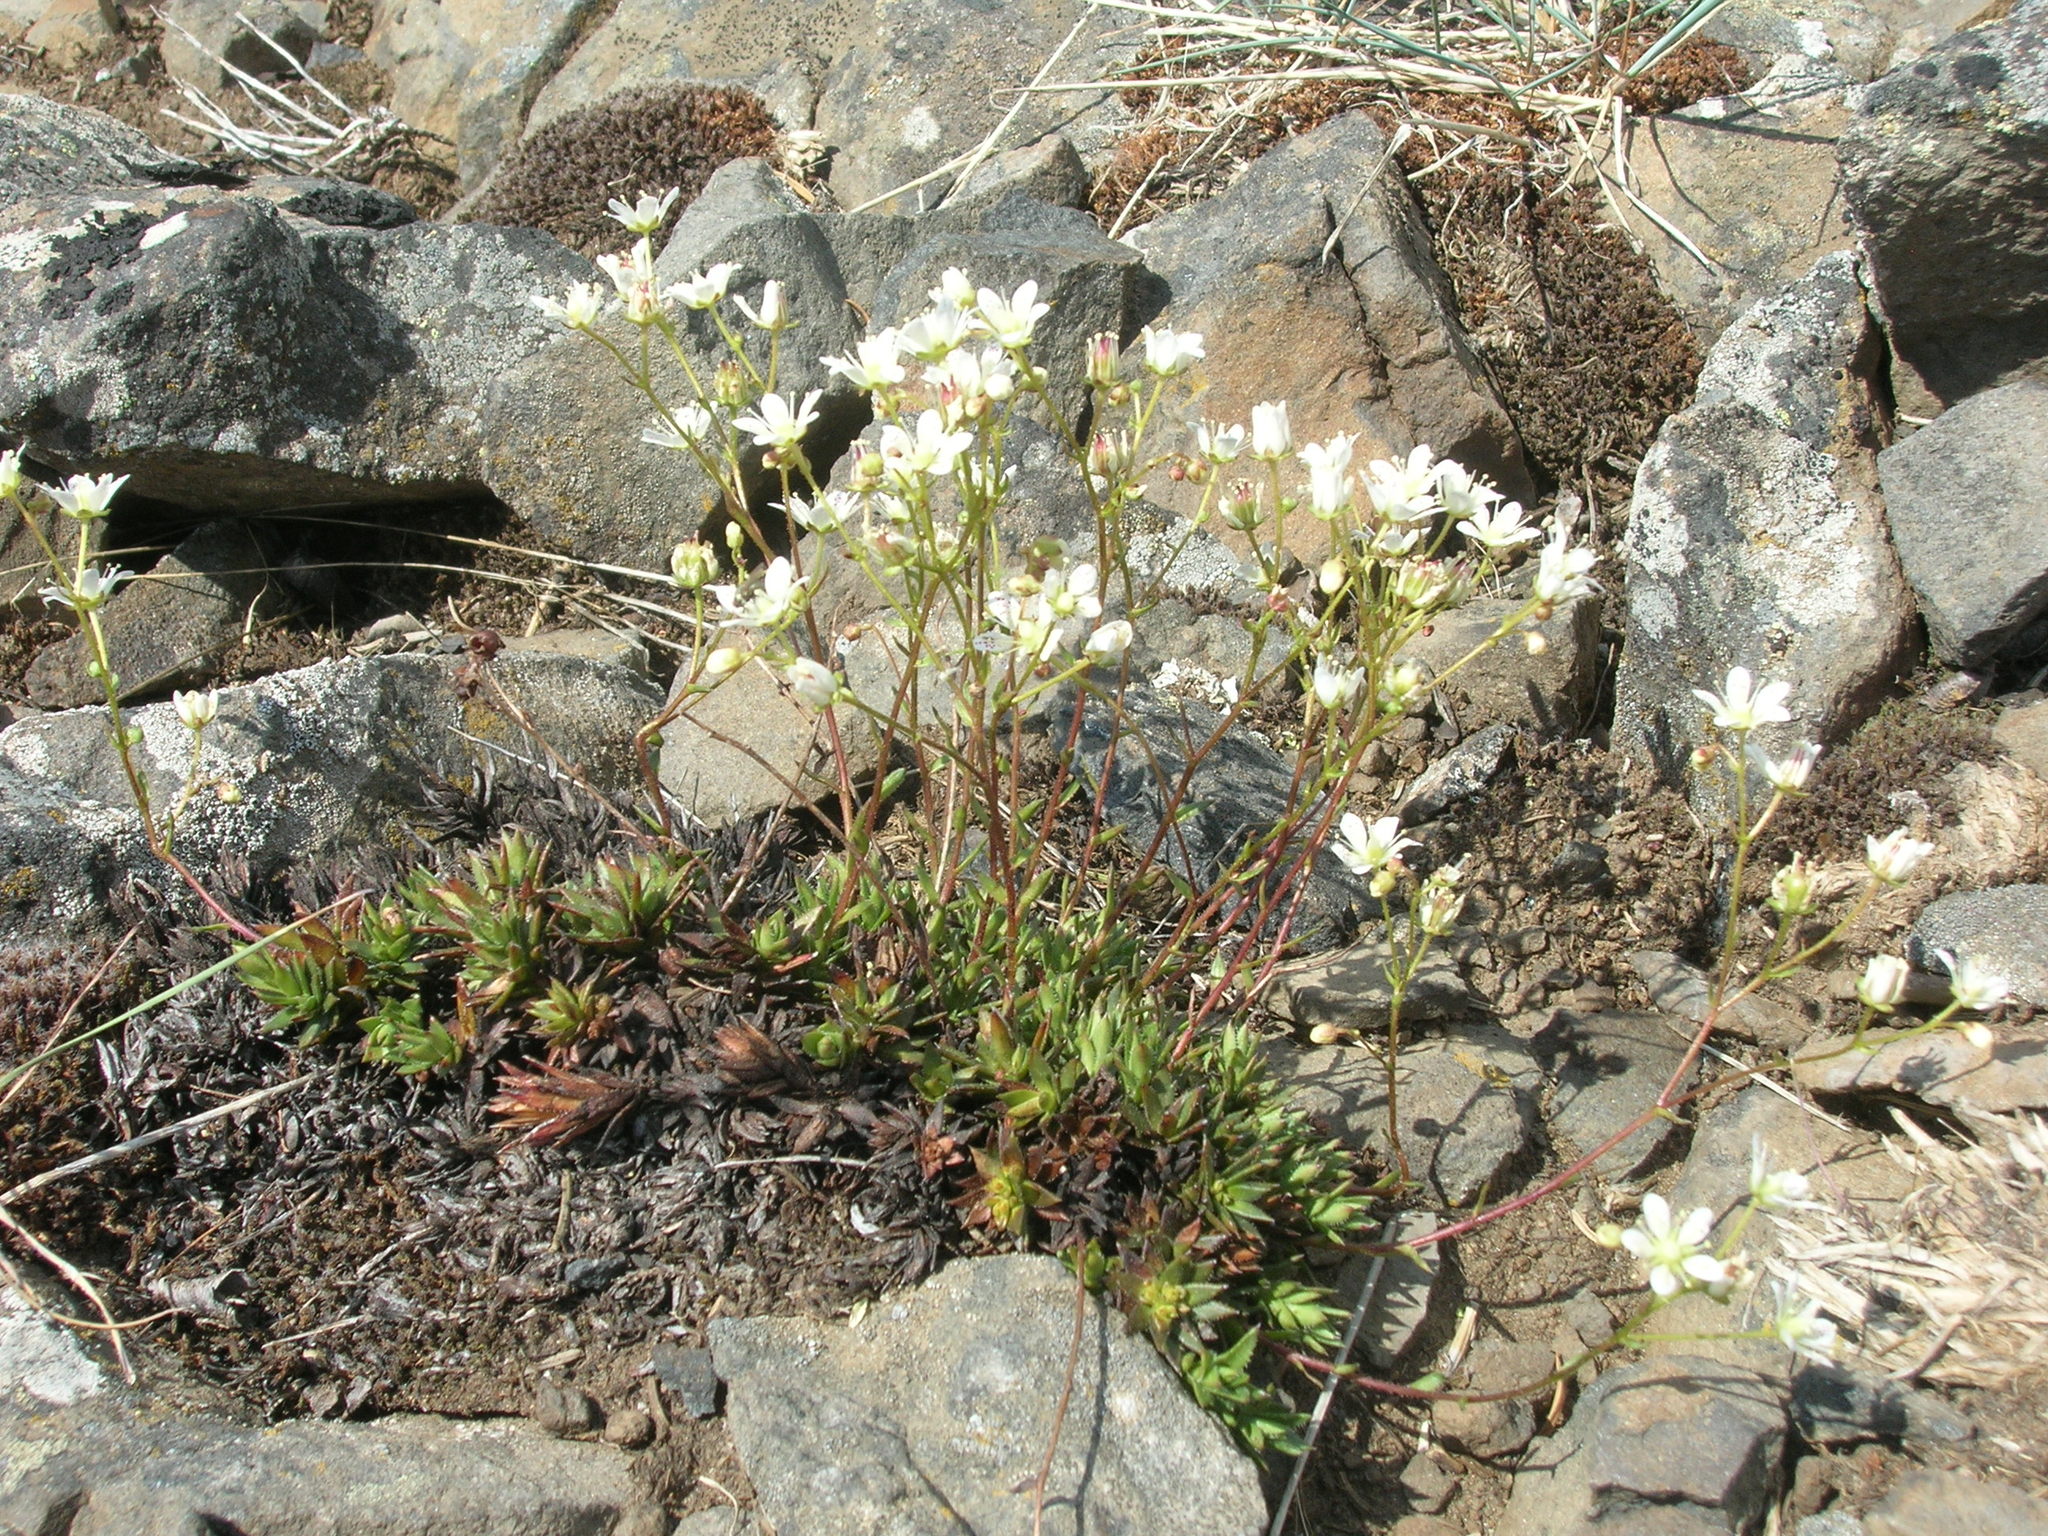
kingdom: Plantae
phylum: Tracheophyta
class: Magnoliopsida
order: Saxifragales
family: Saxifragaceae
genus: Saxifraga
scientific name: Saxifraga bronchialis
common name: Matted saxifrage
